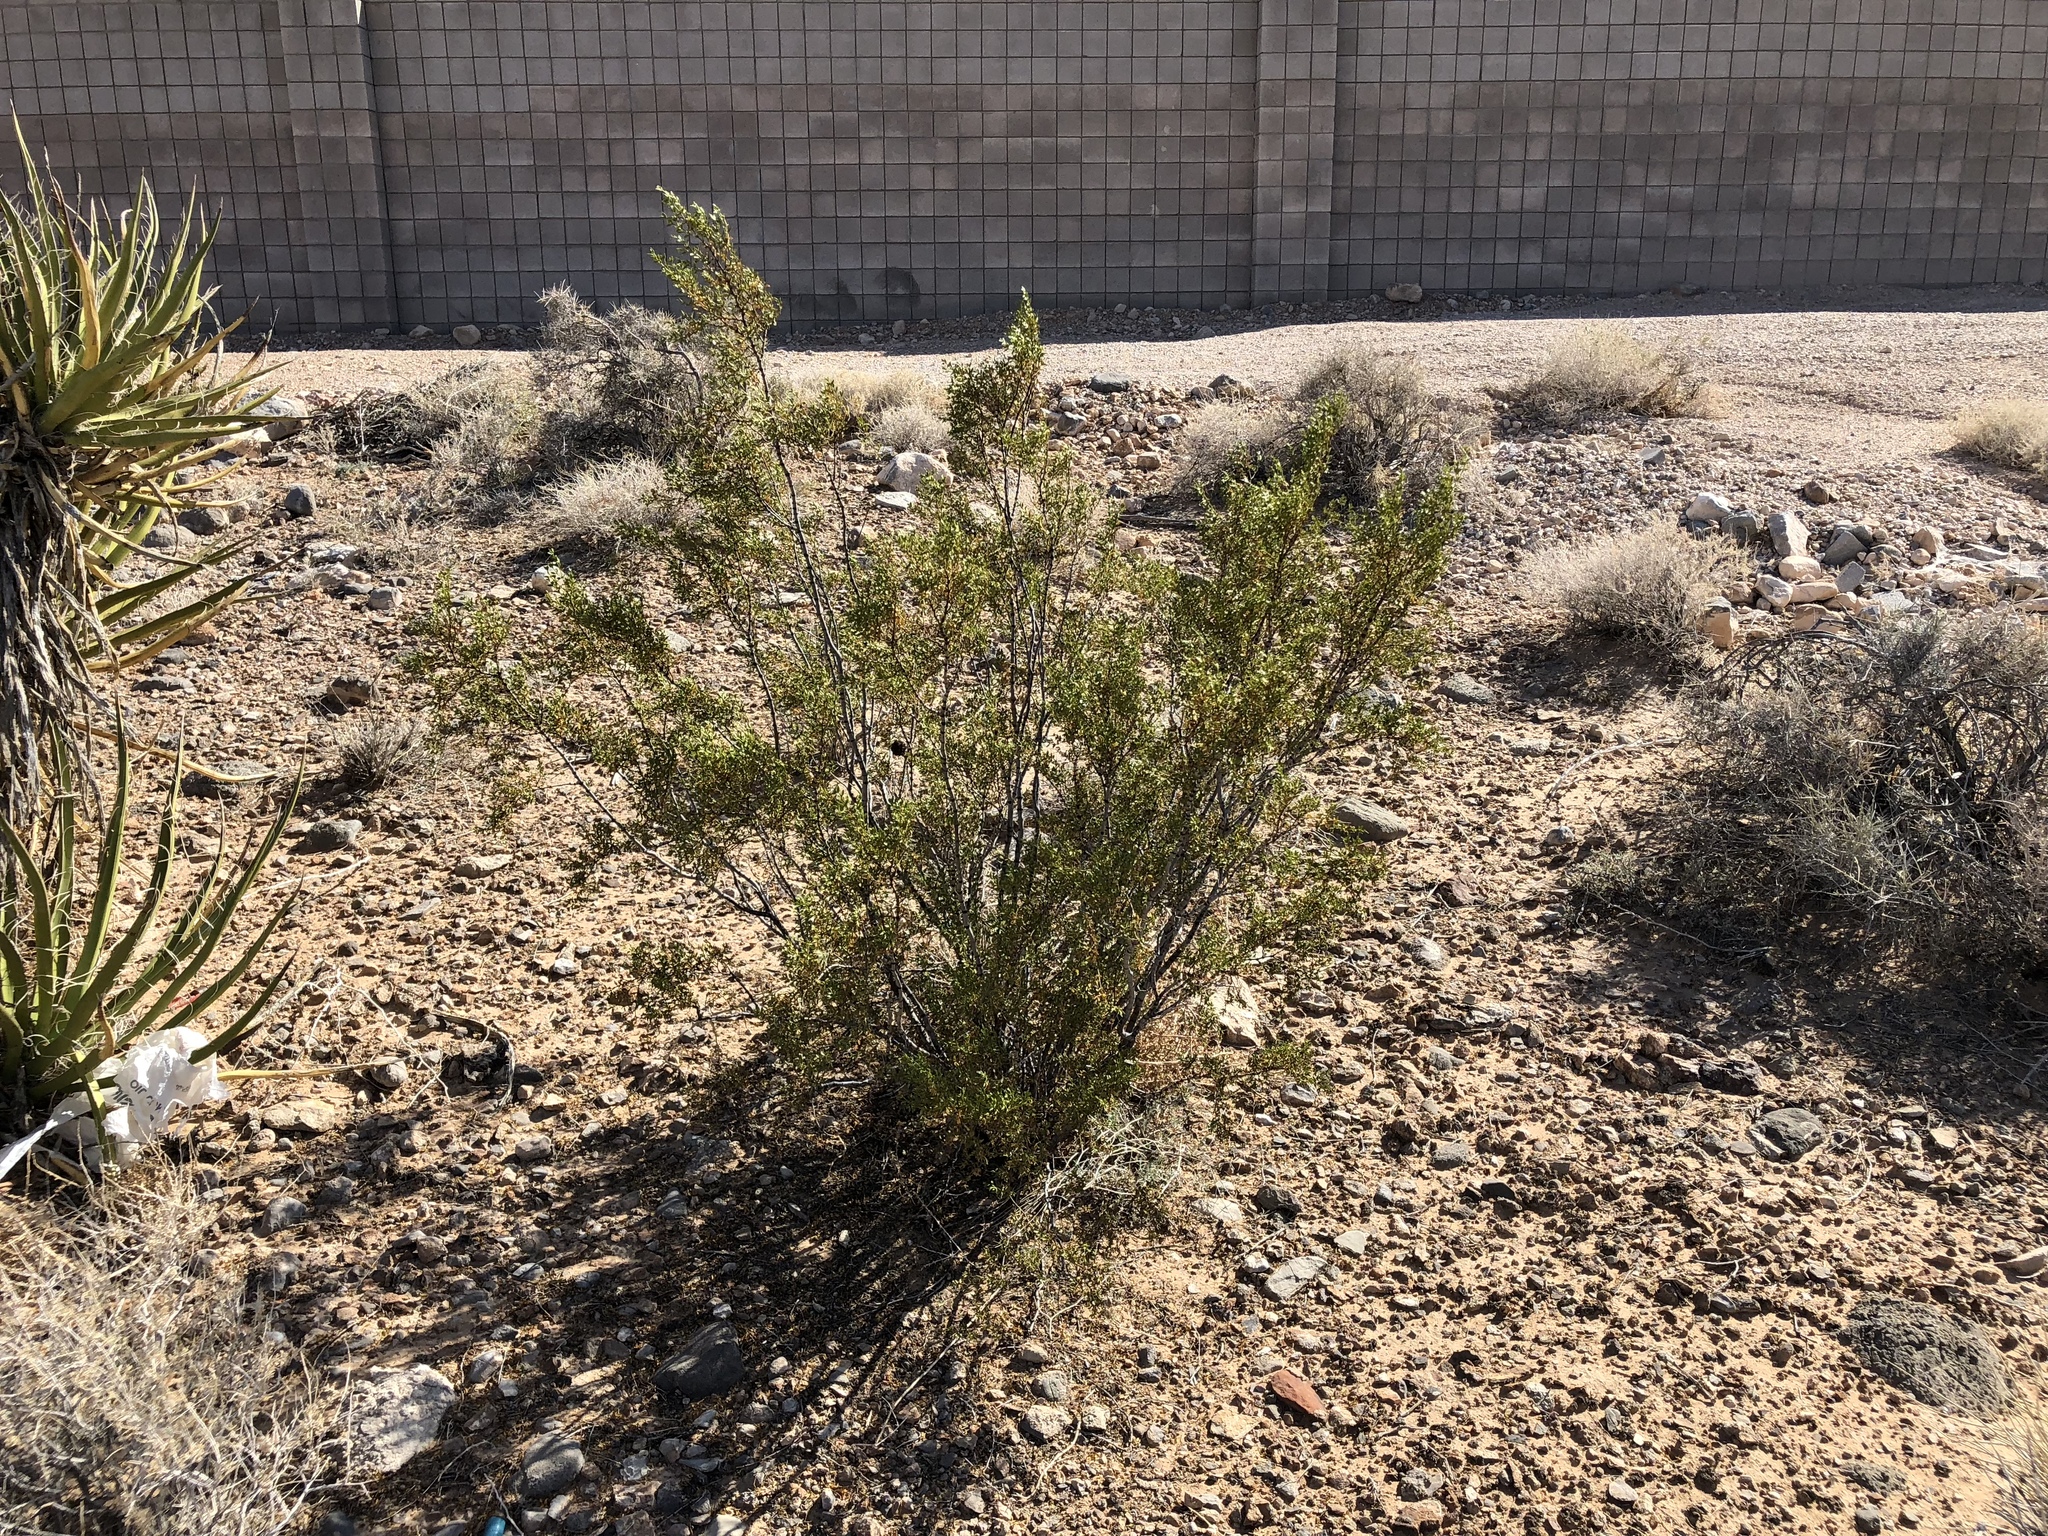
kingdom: Plantae
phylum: Tracheophyta
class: Magnoliopsida
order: Zygophyllales
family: Zygophyllaceae
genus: Larrea
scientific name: Larrea tridentata
